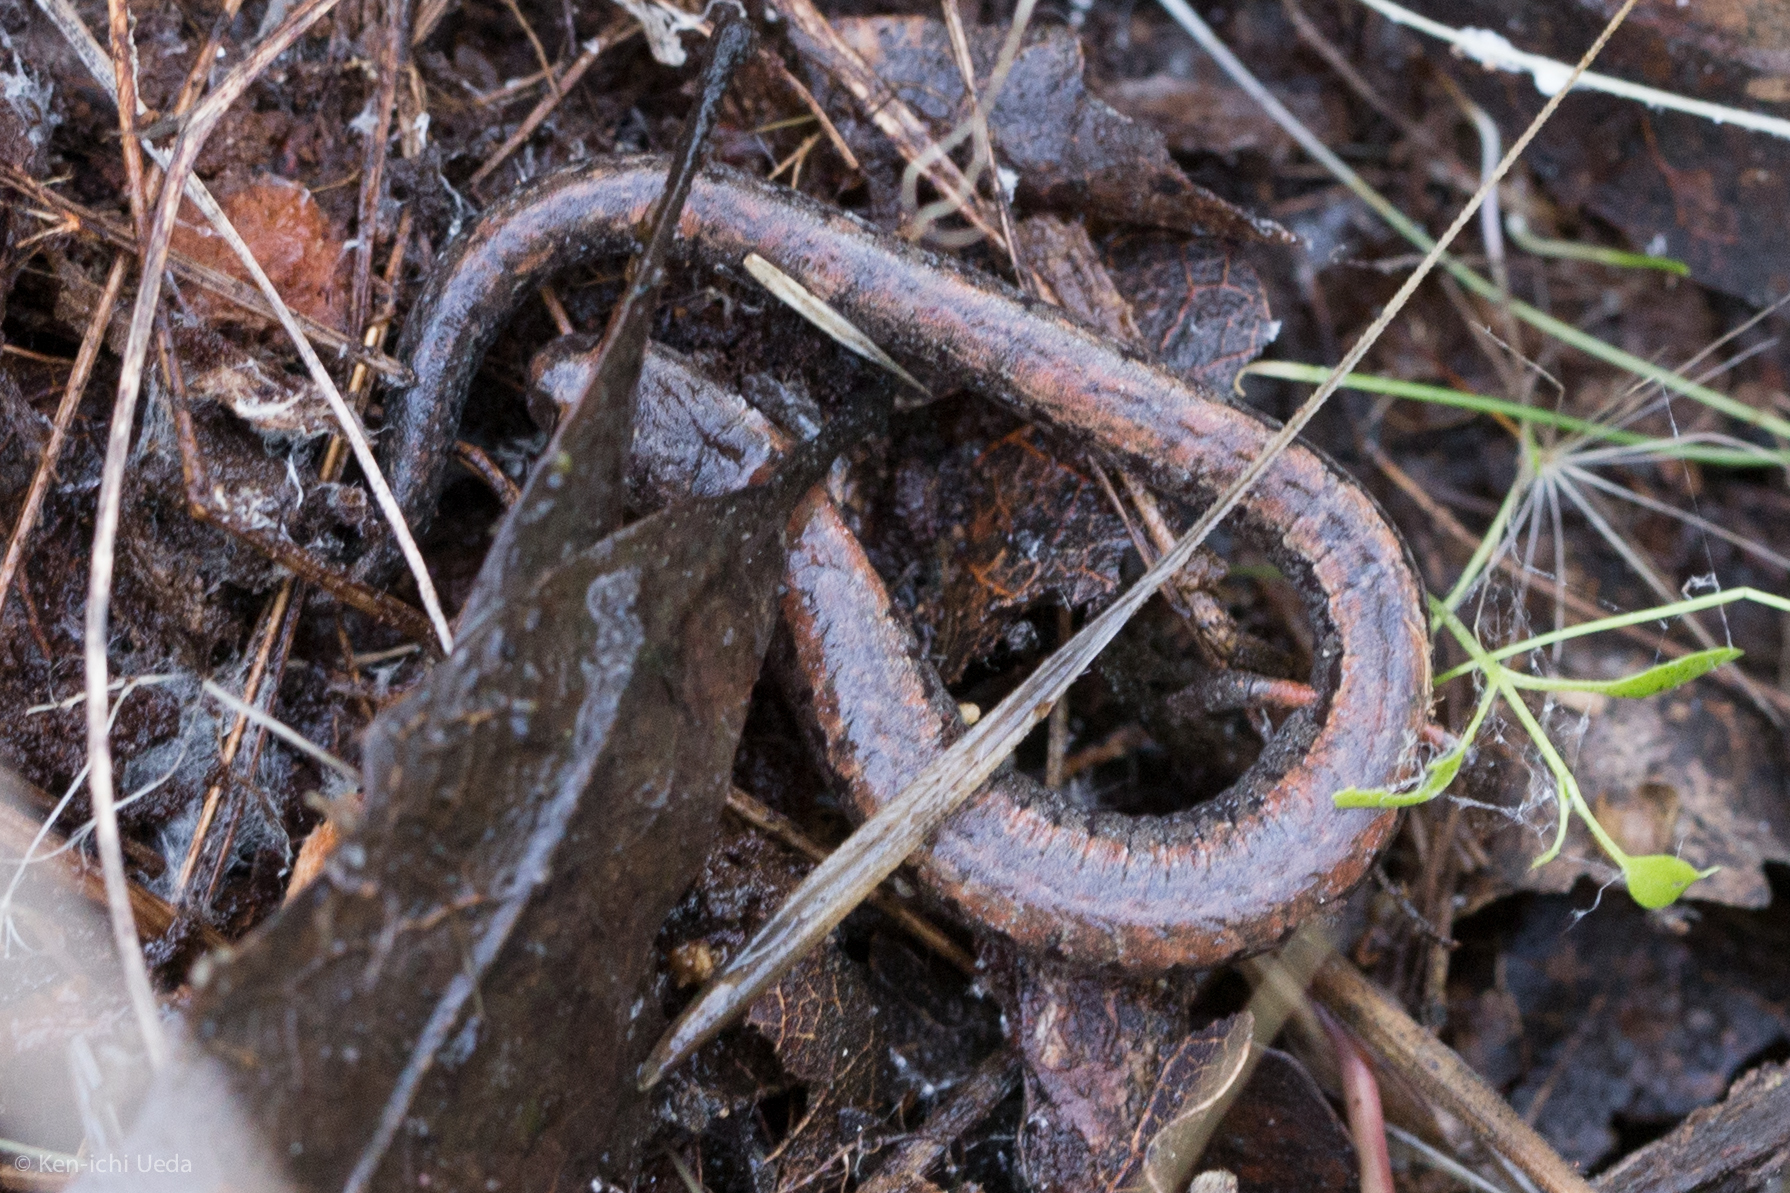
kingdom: Animalia
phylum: Chordata
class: Amphibia
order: Caudata
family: Plethodontidae
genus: Batrachoseps
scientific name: Batrachoseps attenuatus
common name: California slender salamander
